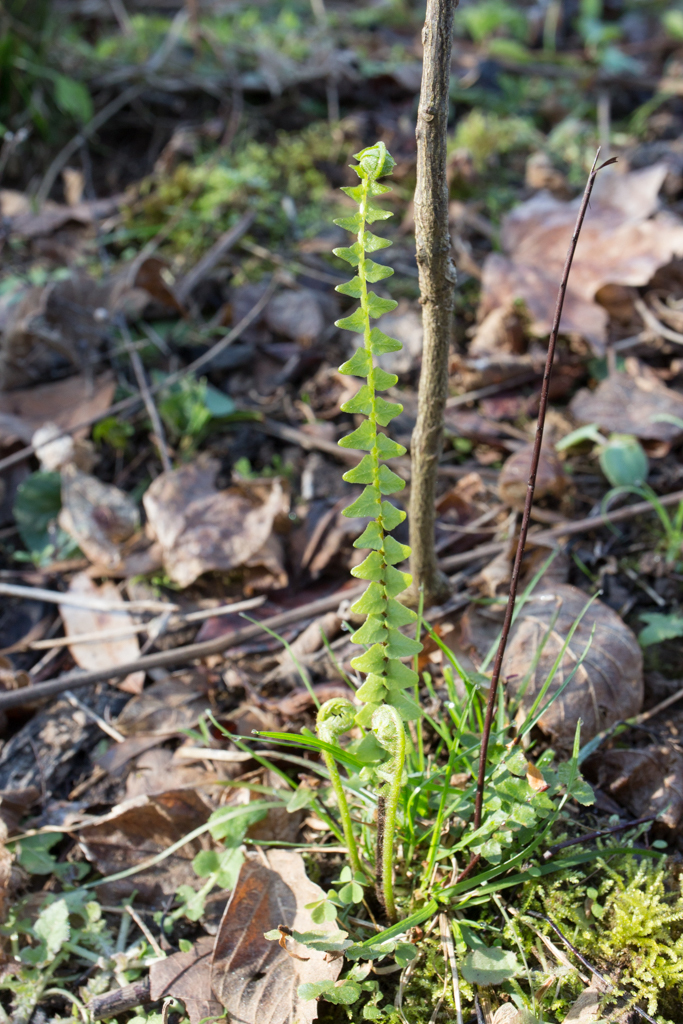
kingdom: Plantae
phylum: Tracheophyta
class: Polypodiopsida
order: Polypodiales
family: Aspleniaceae
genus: Asplenium
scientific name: Asplenium platyneuron
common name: Ebony spleenwort
